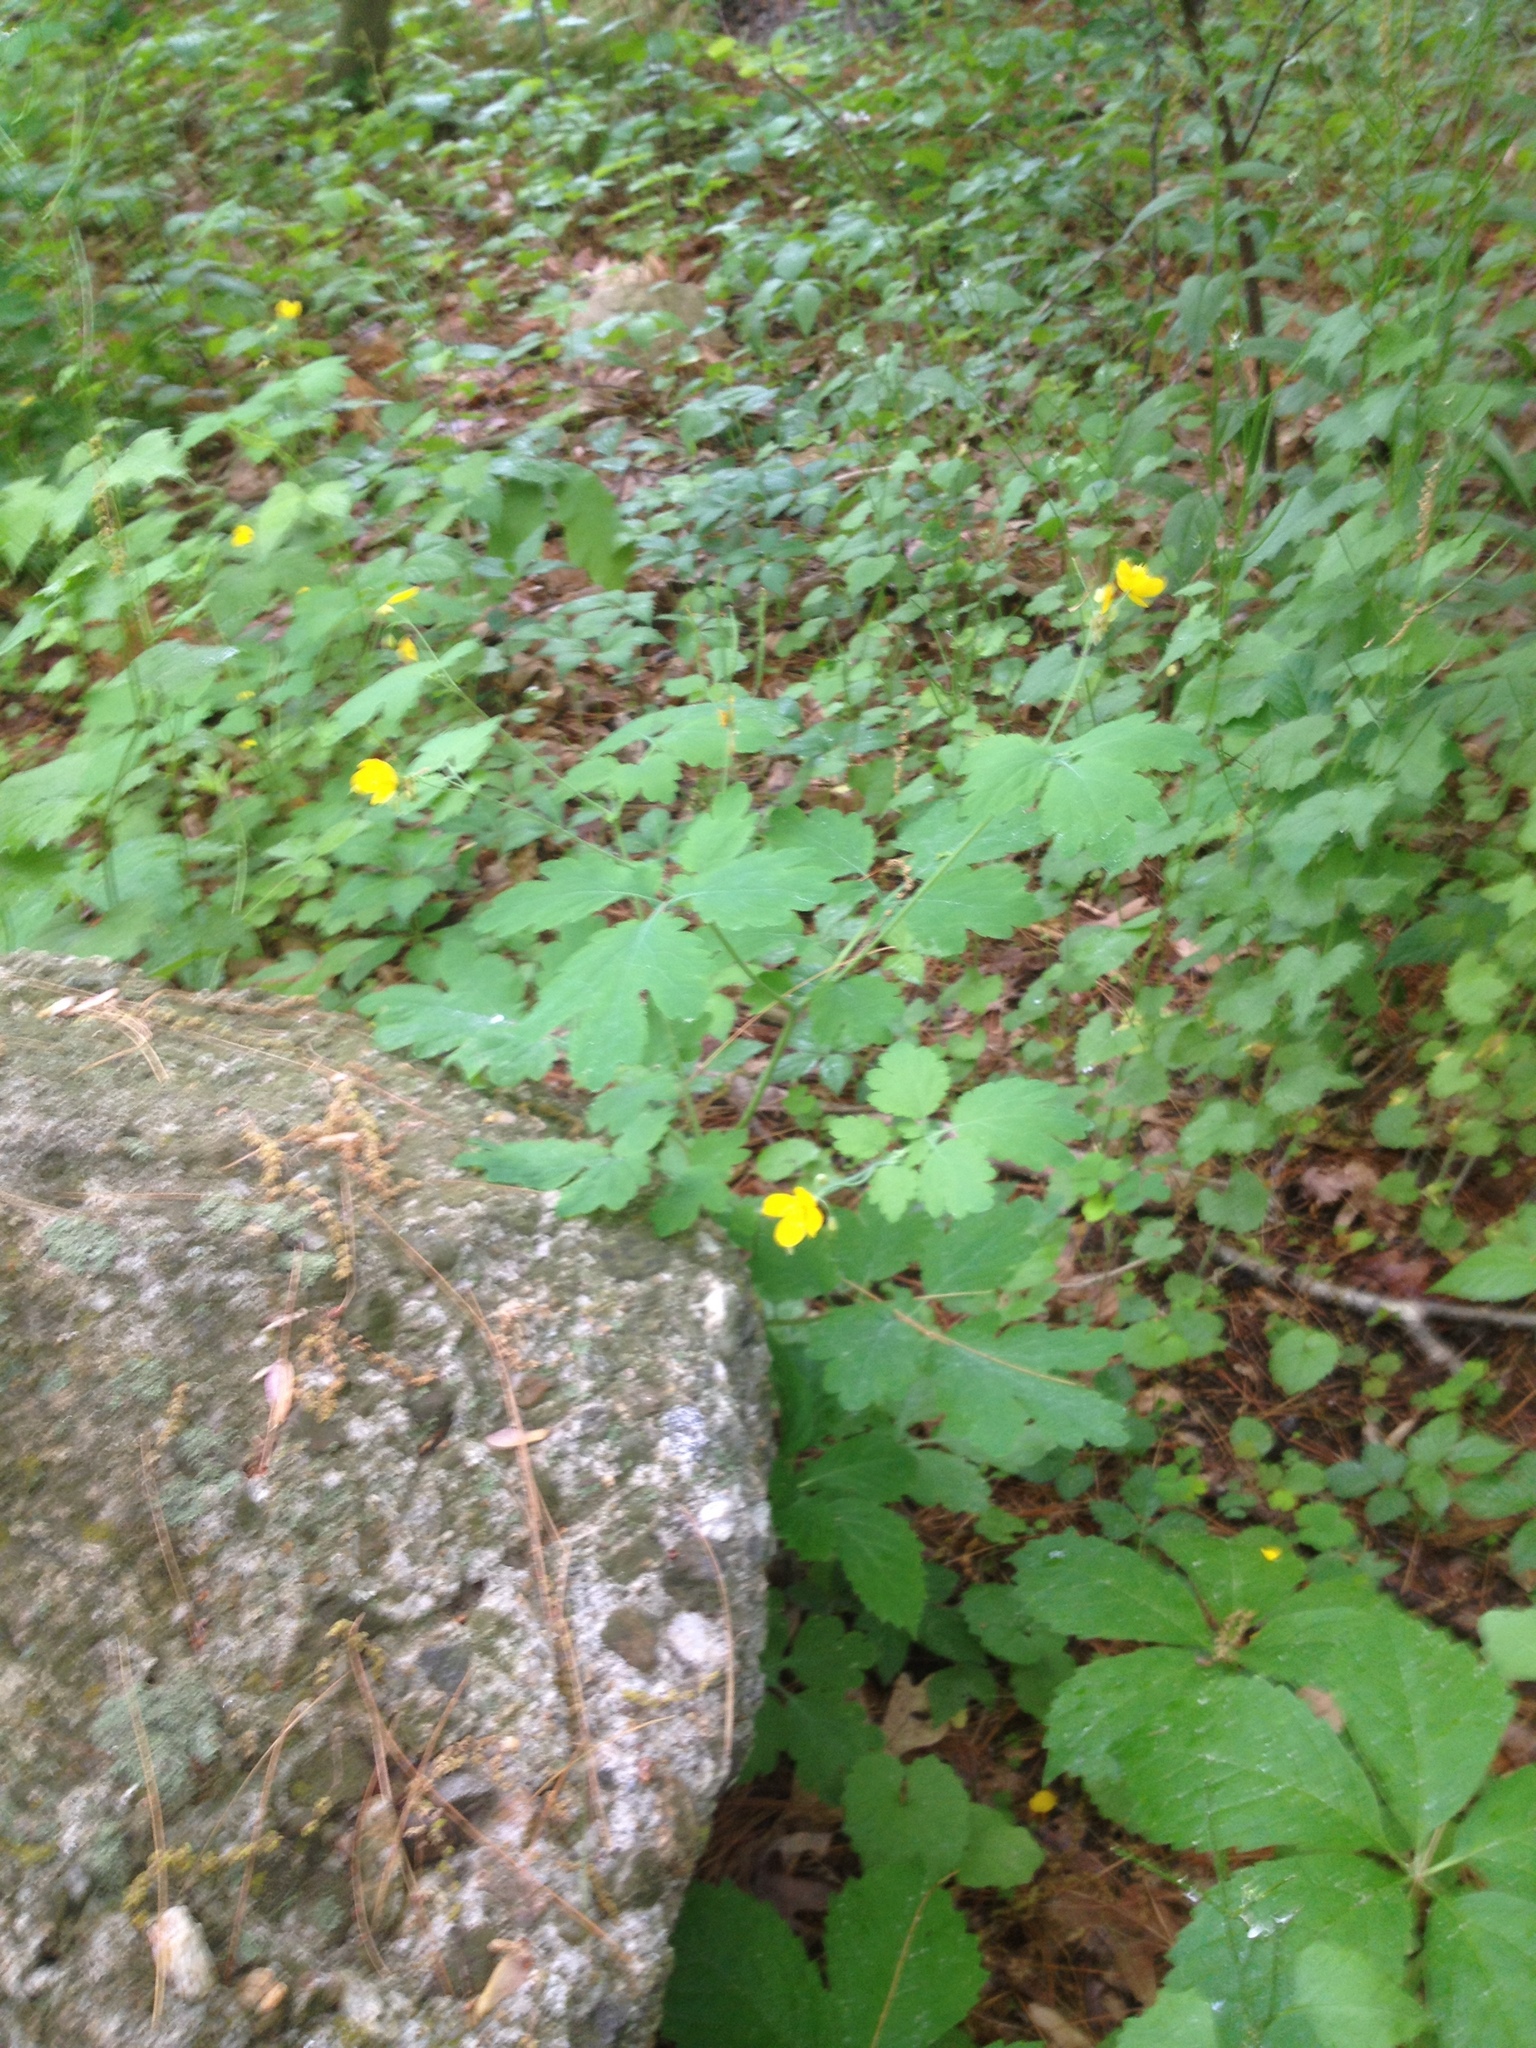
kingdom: Plantae
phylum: Tracheophyta
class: Magnoliopsida
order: Ranunculales
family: Papaveraceae
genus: Chelidonium
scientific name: Chelidonium majus
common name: Greater celandine
